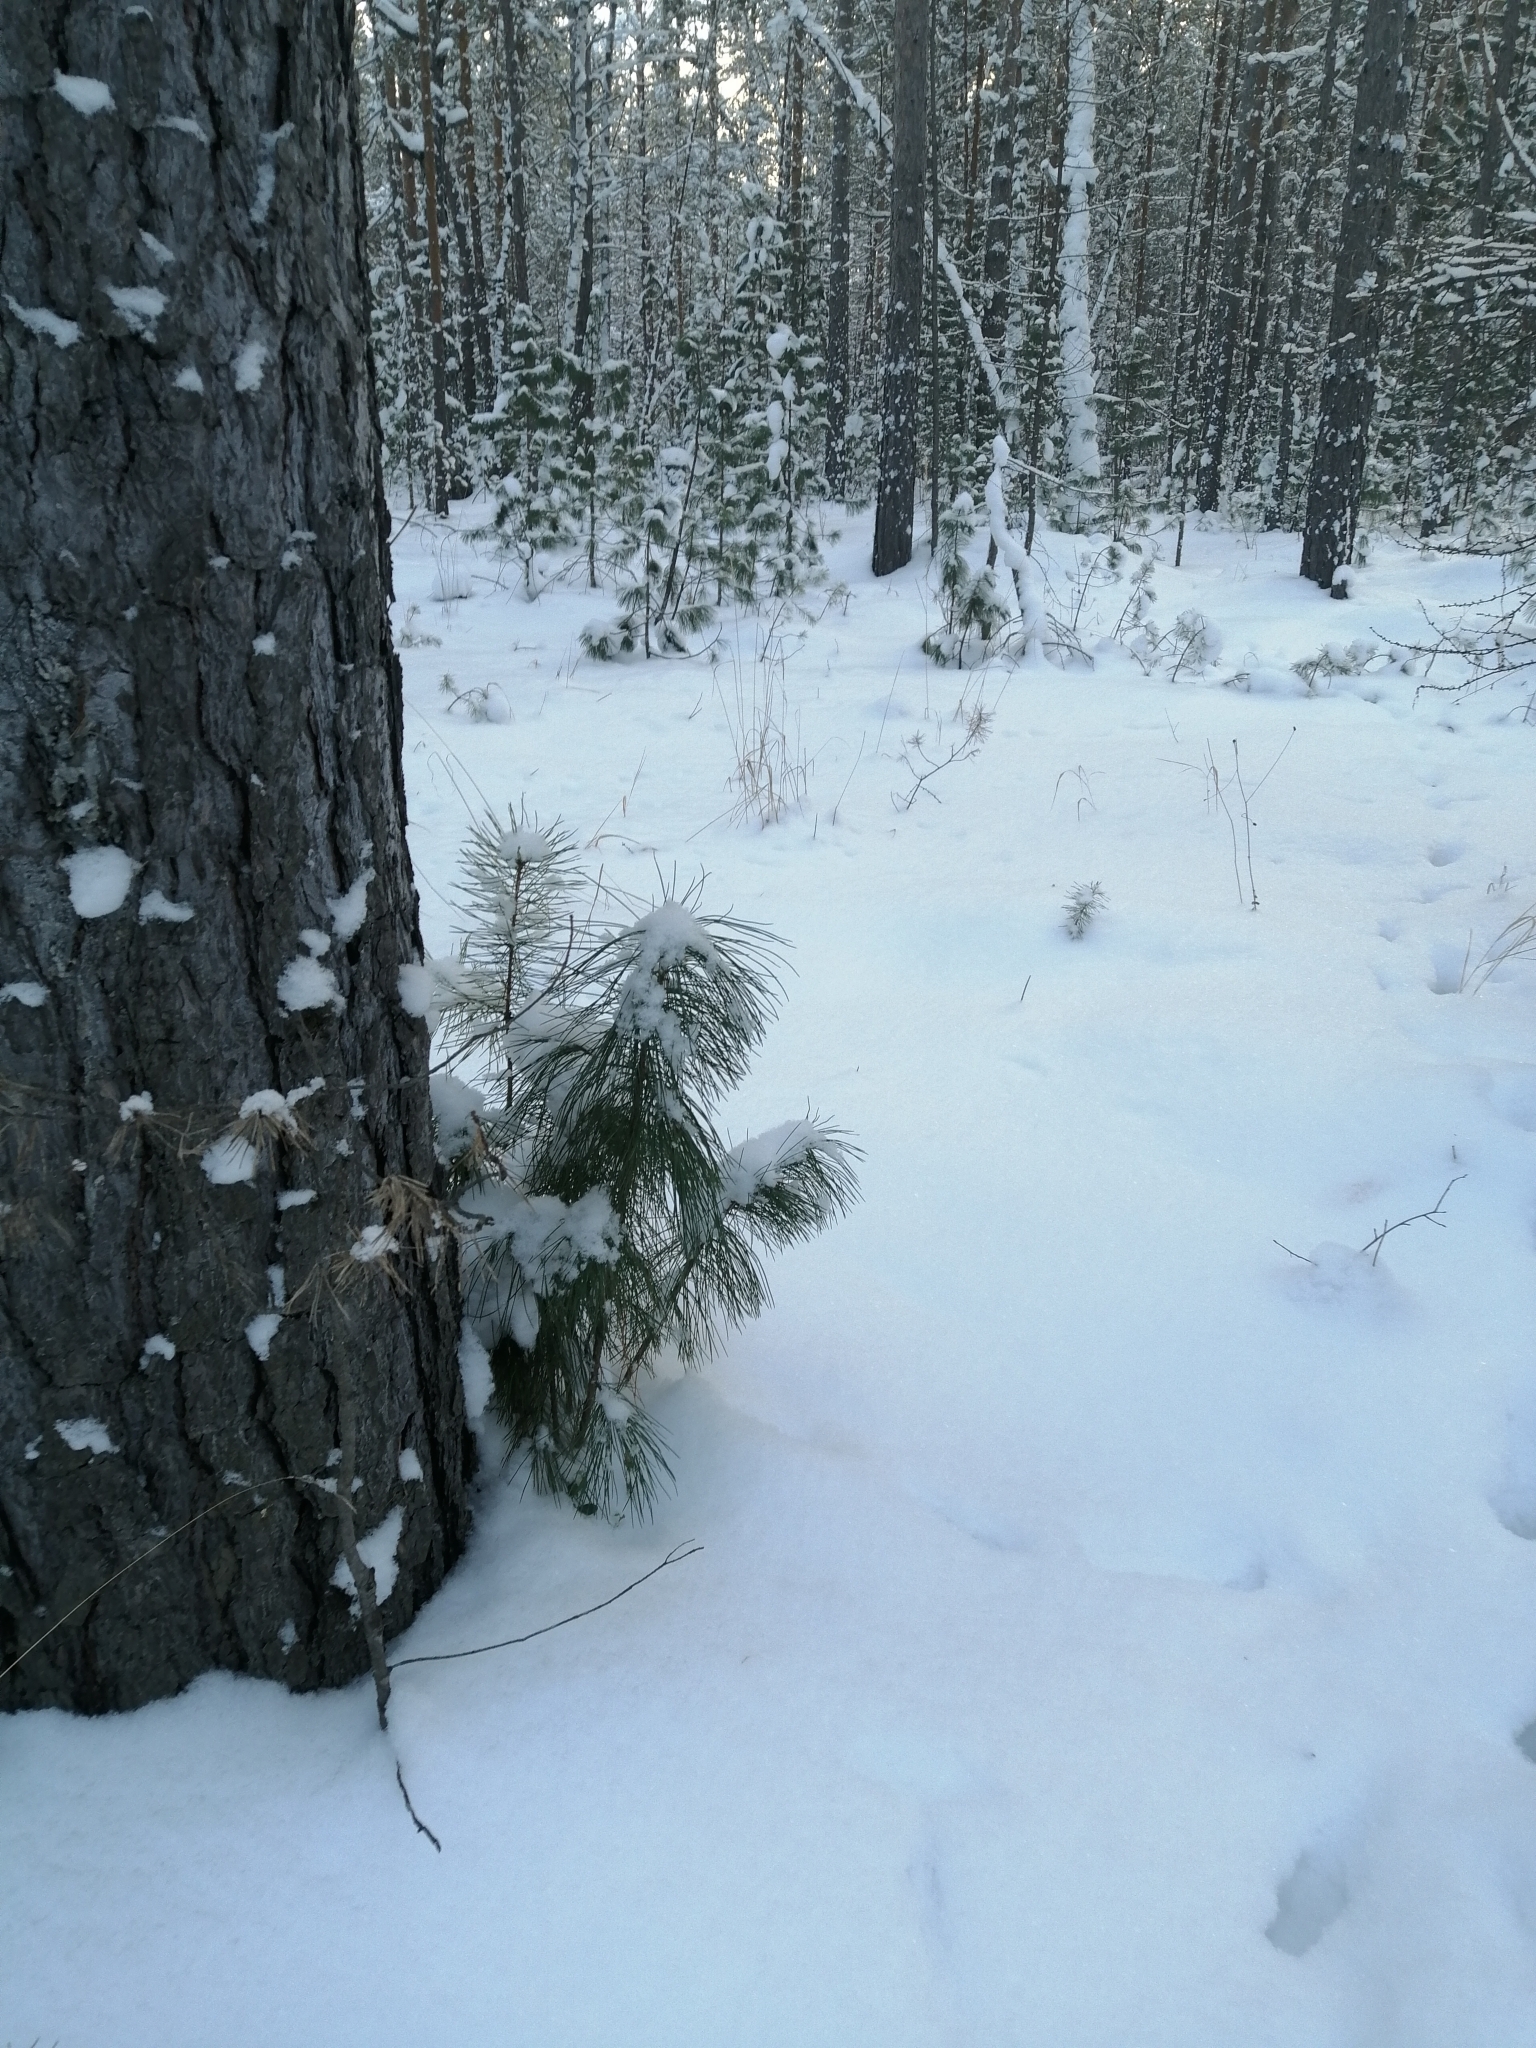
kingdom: Plantae
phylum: Tracheophyta
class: Pinopsida
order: Pinales
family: Pinaceae
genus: Pinus
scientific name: Pinus sibirica
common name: Siberian pine
